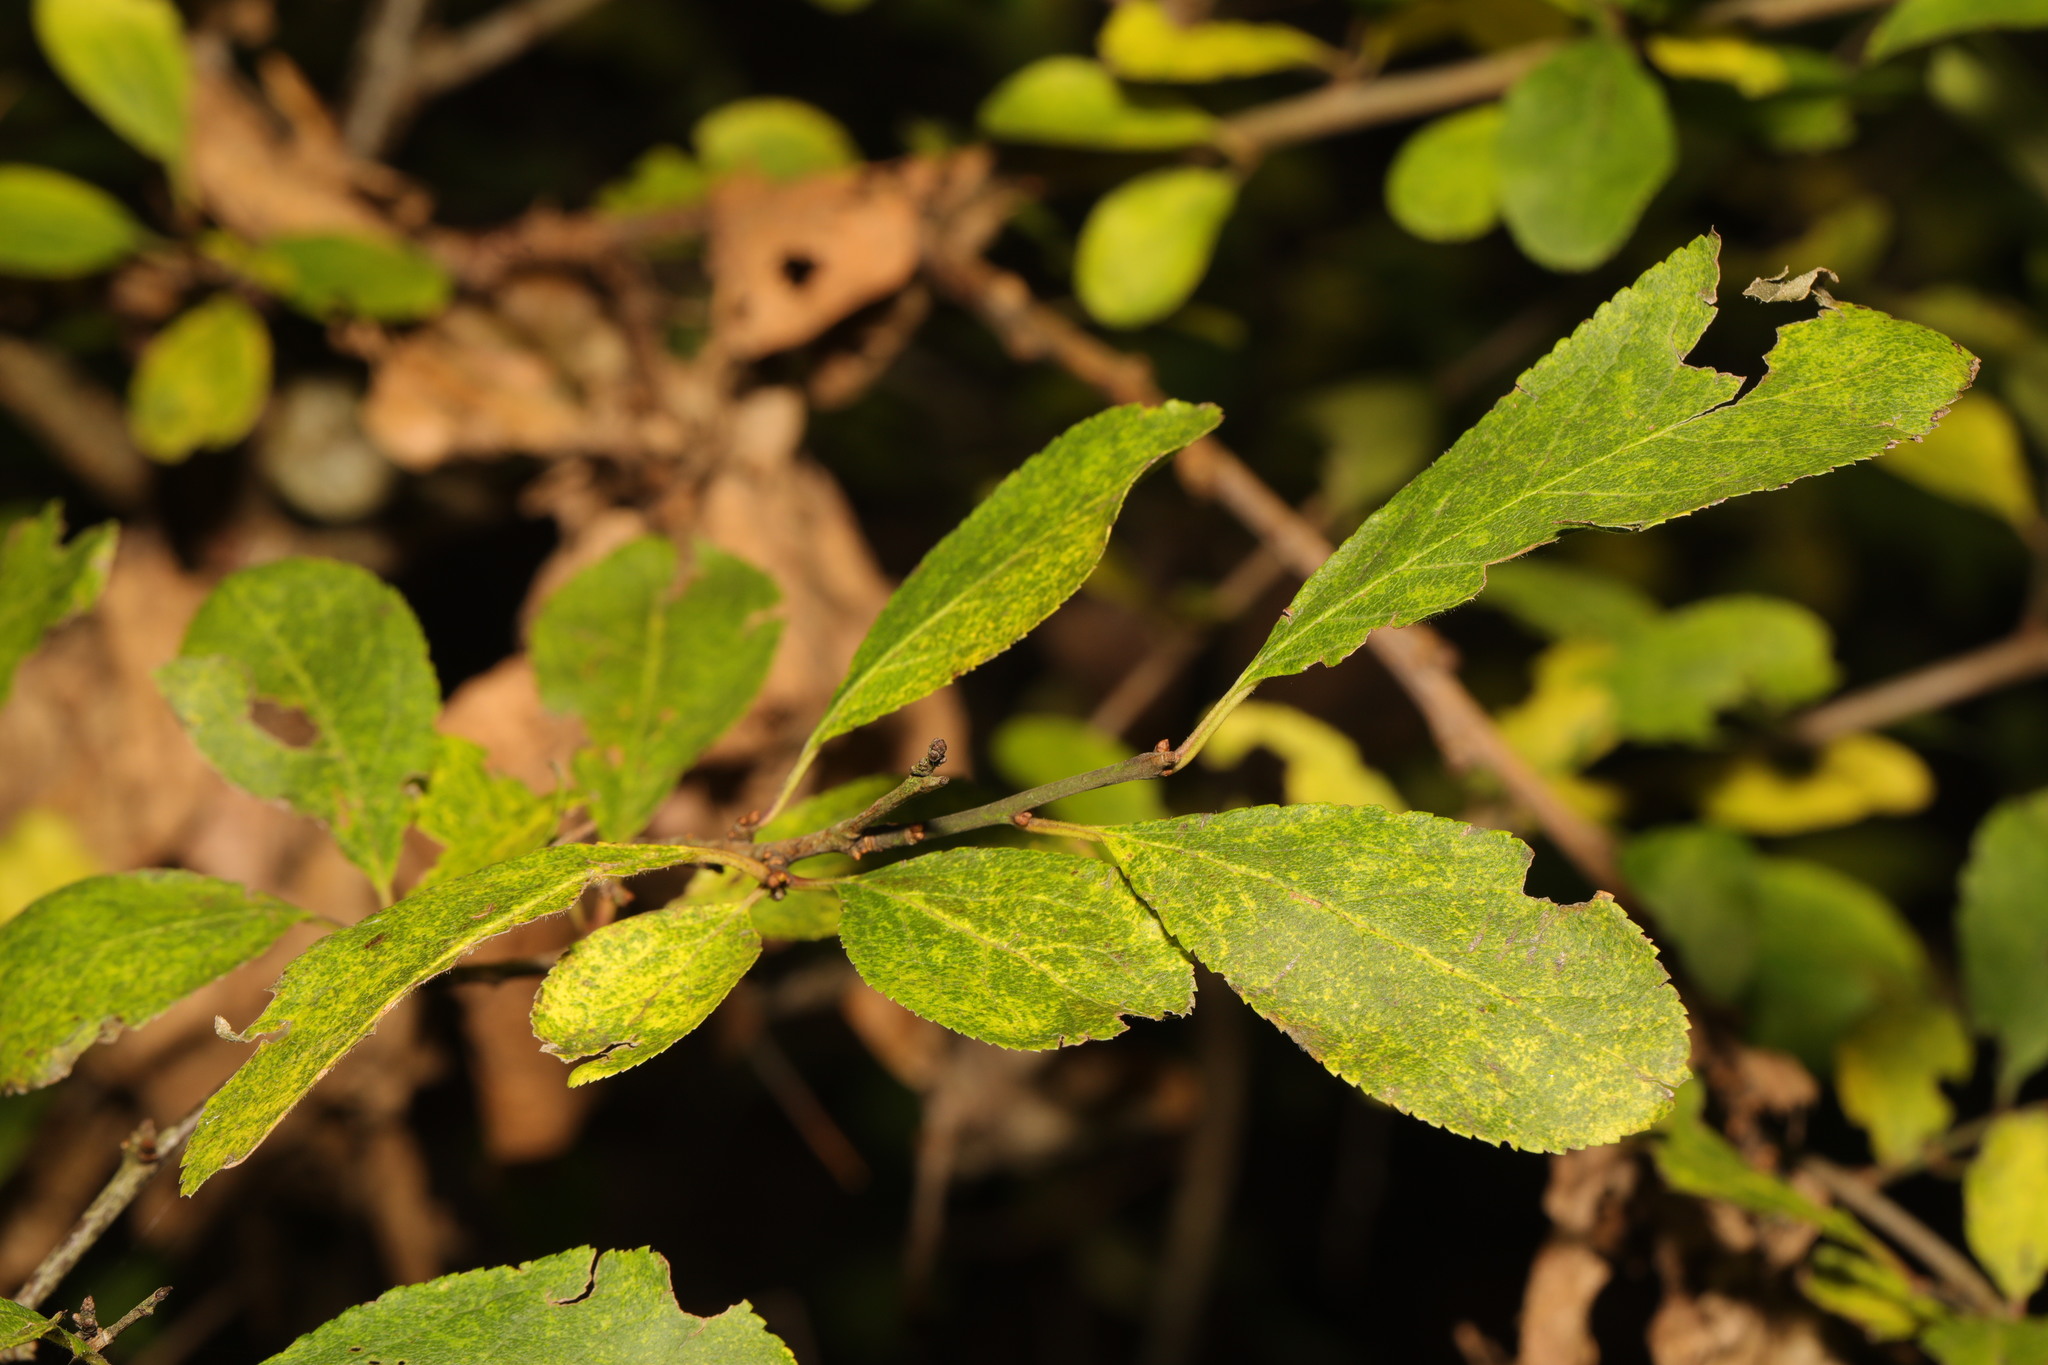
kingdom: Plantae
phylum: Tracheophyta
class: Magnoliopsida
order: Rosales
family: Rosaceae
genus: Prunus
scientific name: Prunus spinosa
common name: Blackthorn
